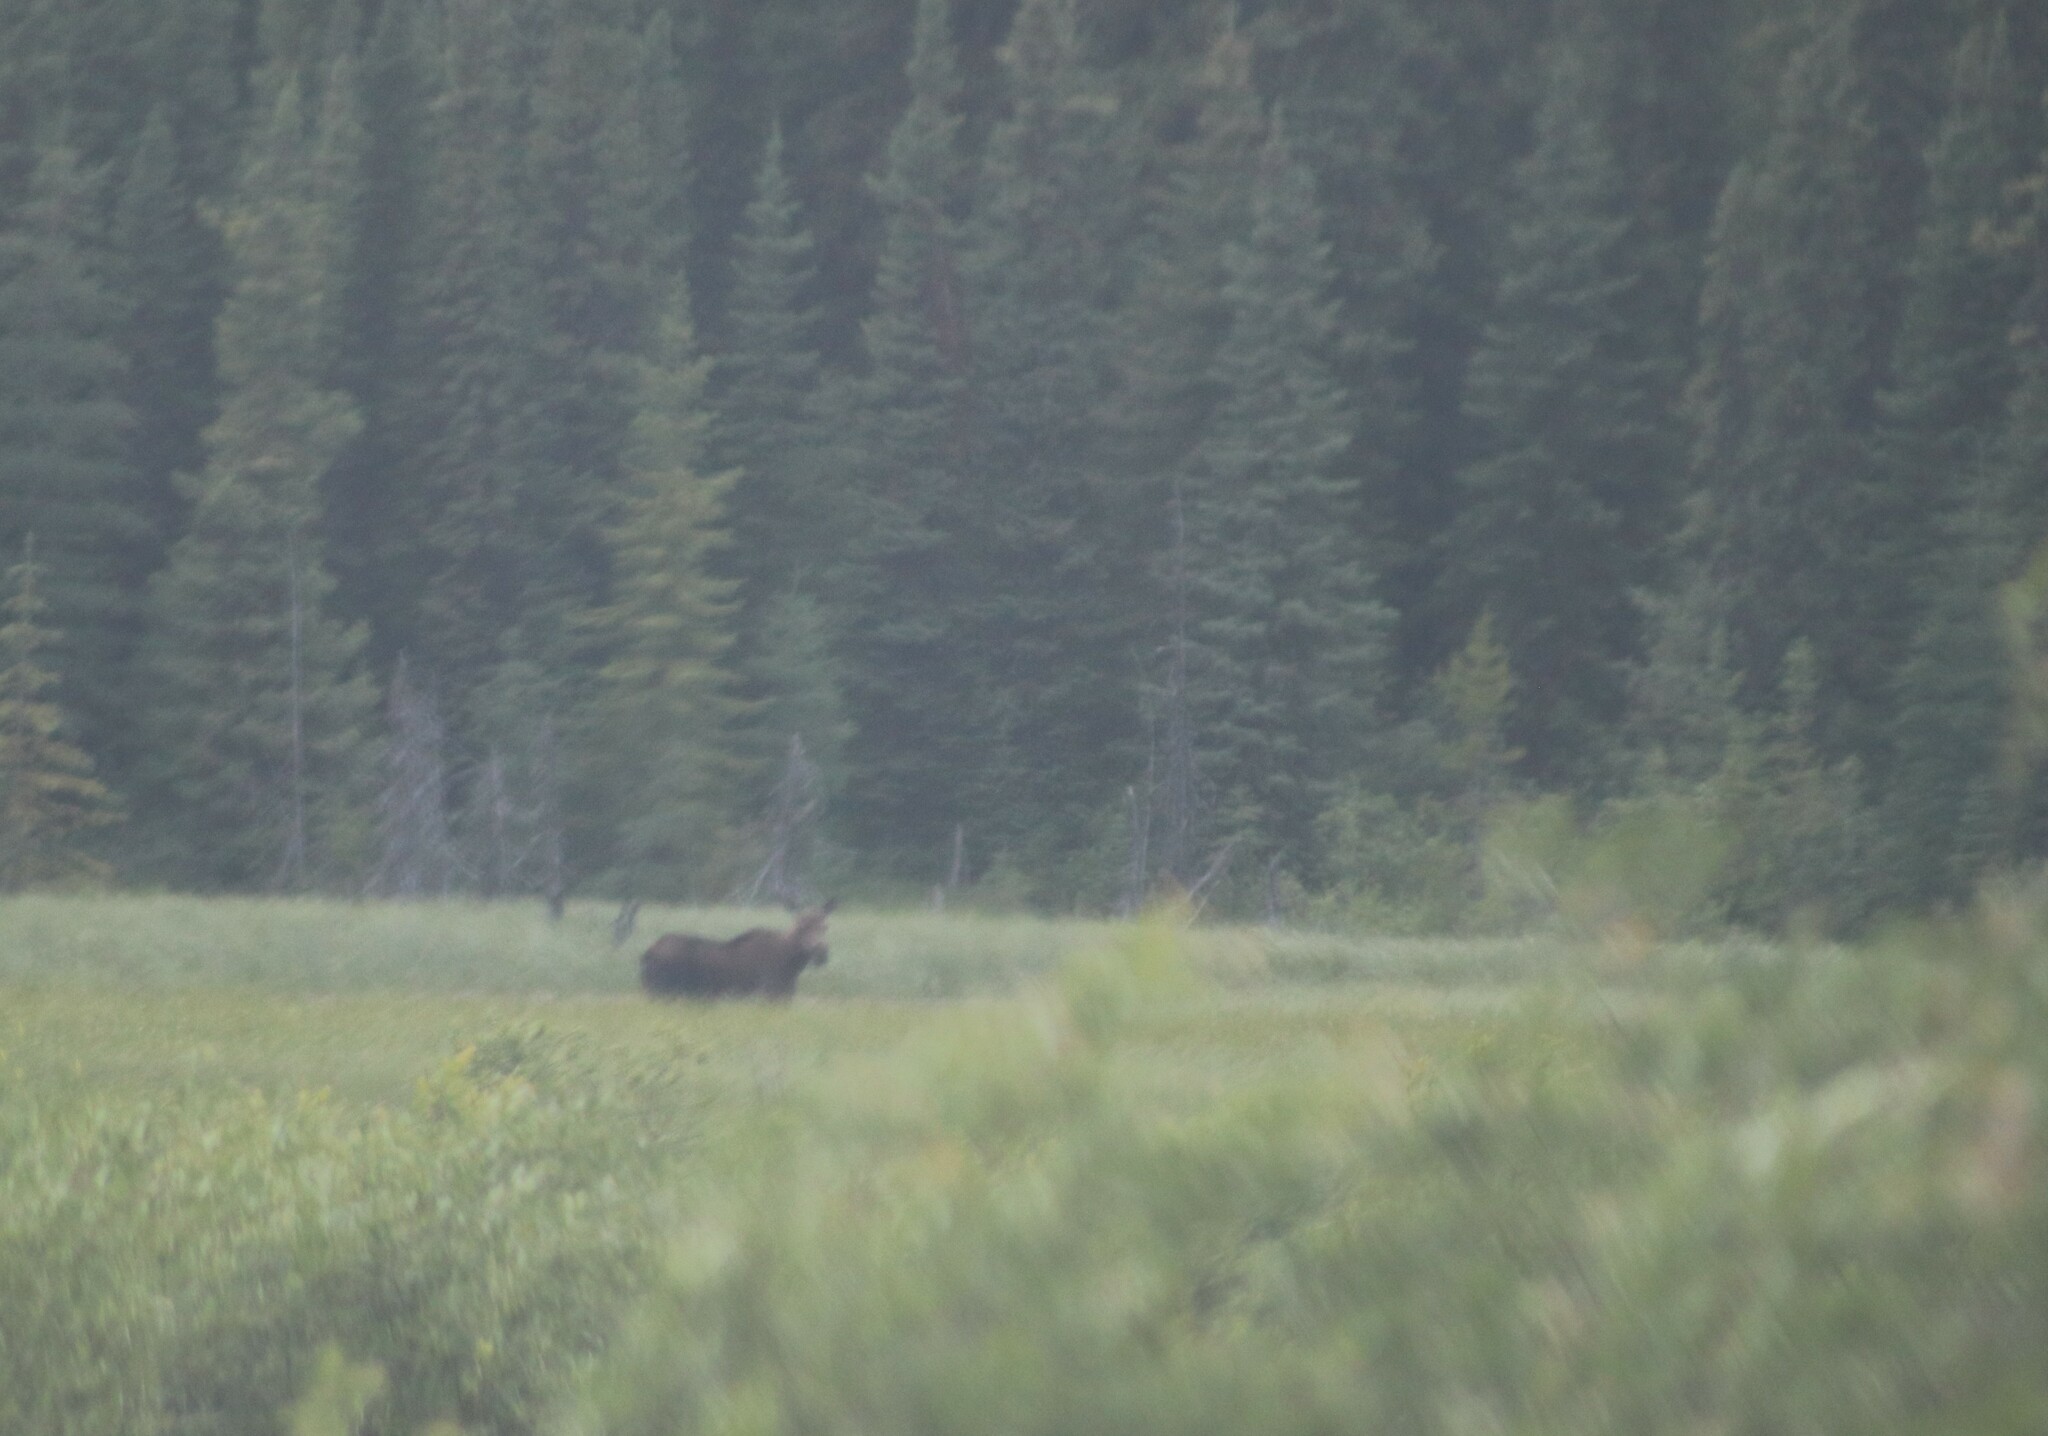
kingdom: Animalia
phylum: Chordata
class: Mammalia
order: Artiodactyla
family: Cervidae
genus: Alces
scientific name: Alces alces
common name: Moose
